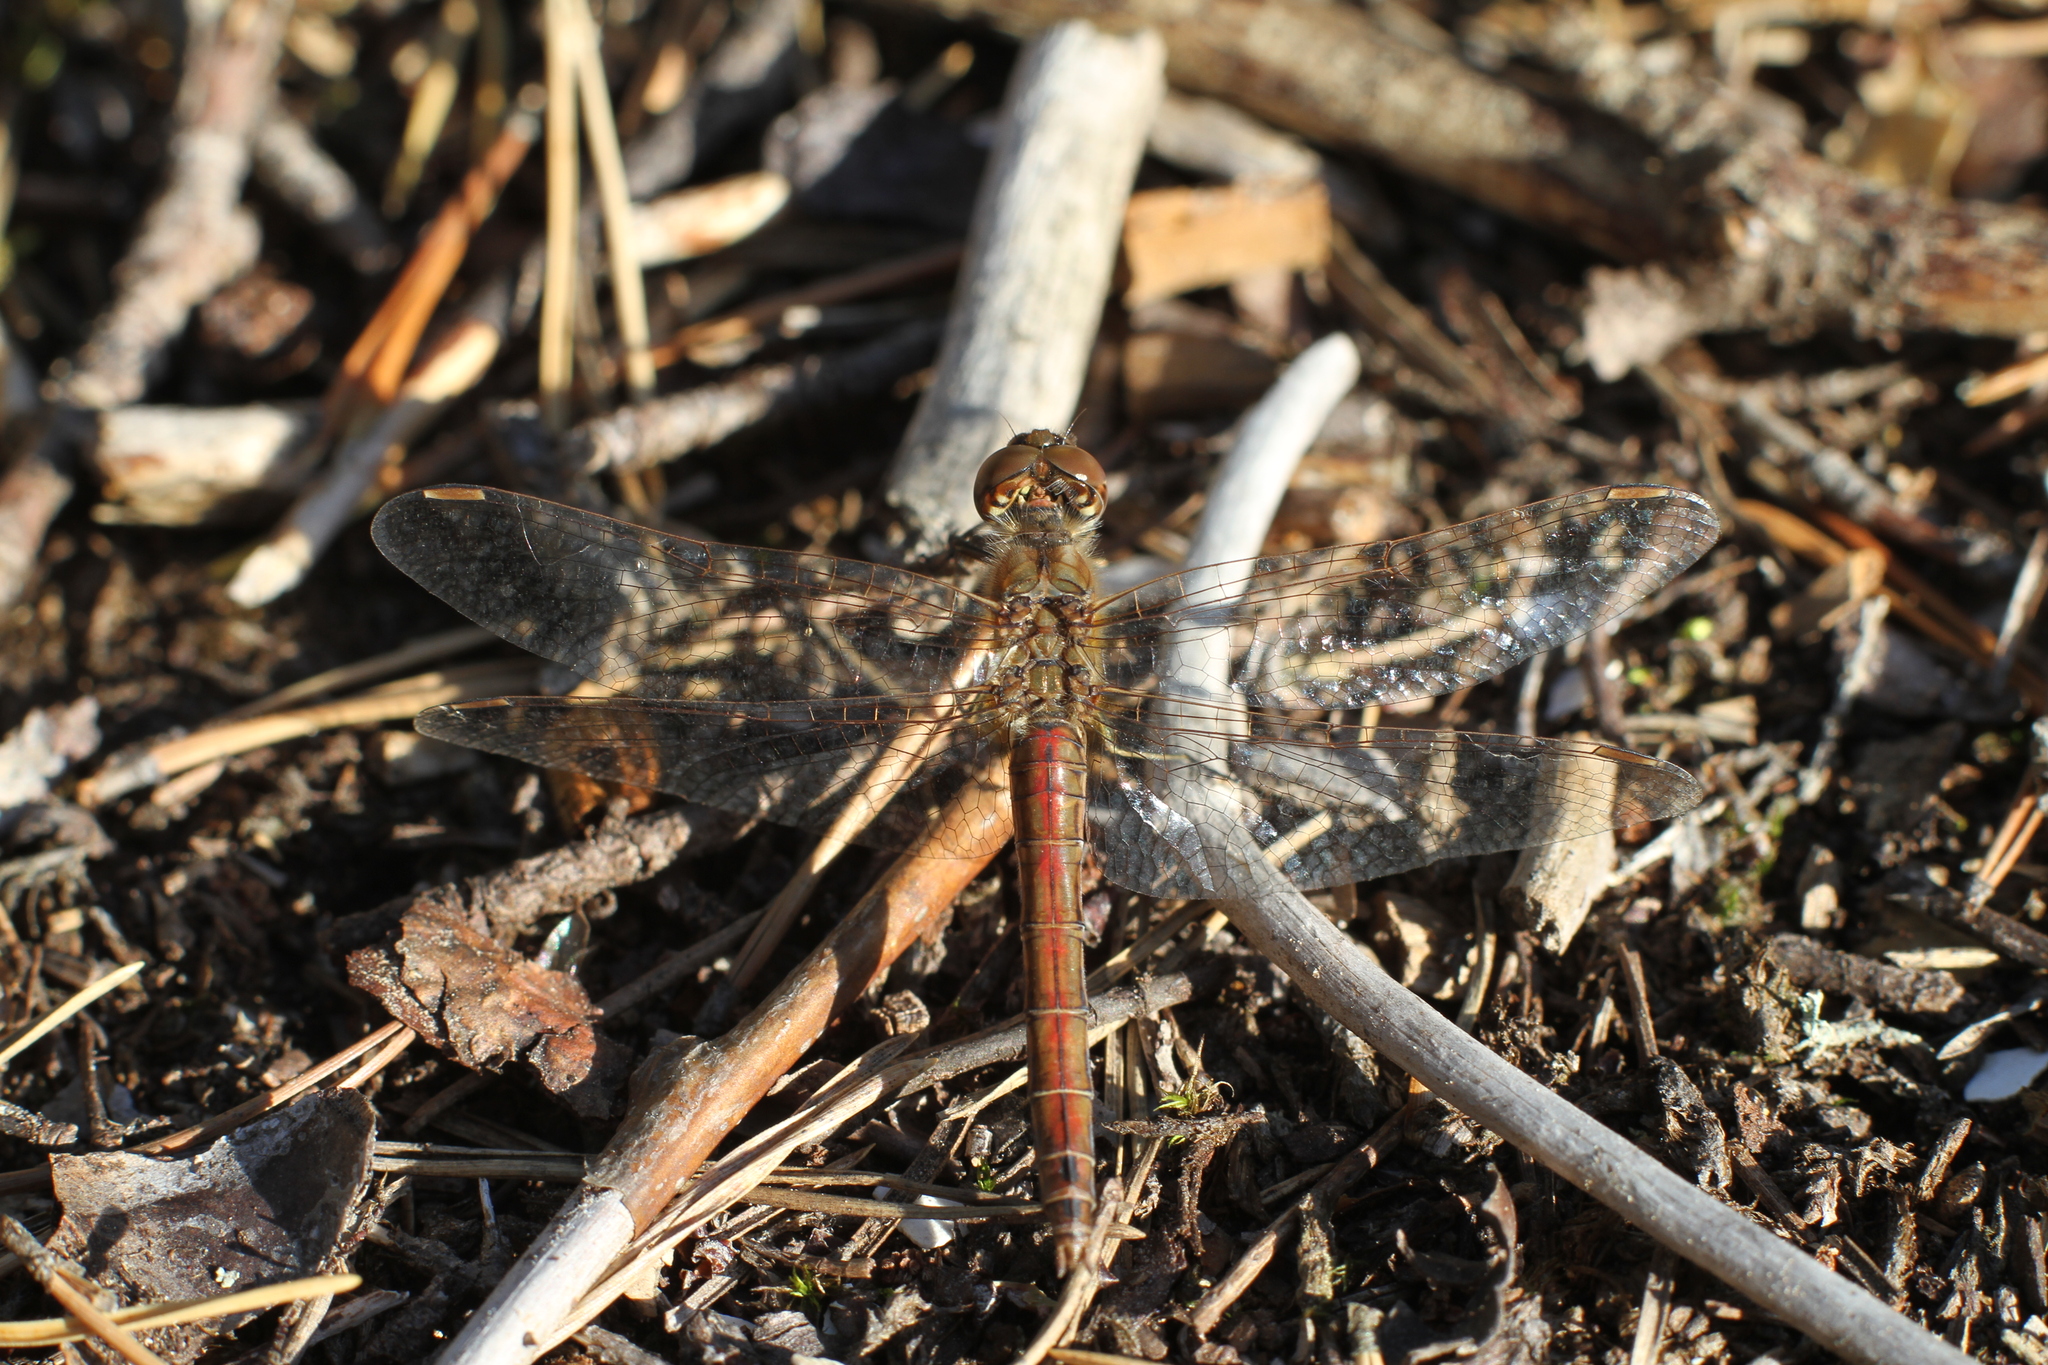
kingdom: Animalia
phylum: Arthropoda
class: Insecta
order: Odonata
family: Libellulidae
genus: Sympetrum
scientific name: Sympetrum vulgatum
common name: Vagrant darter
